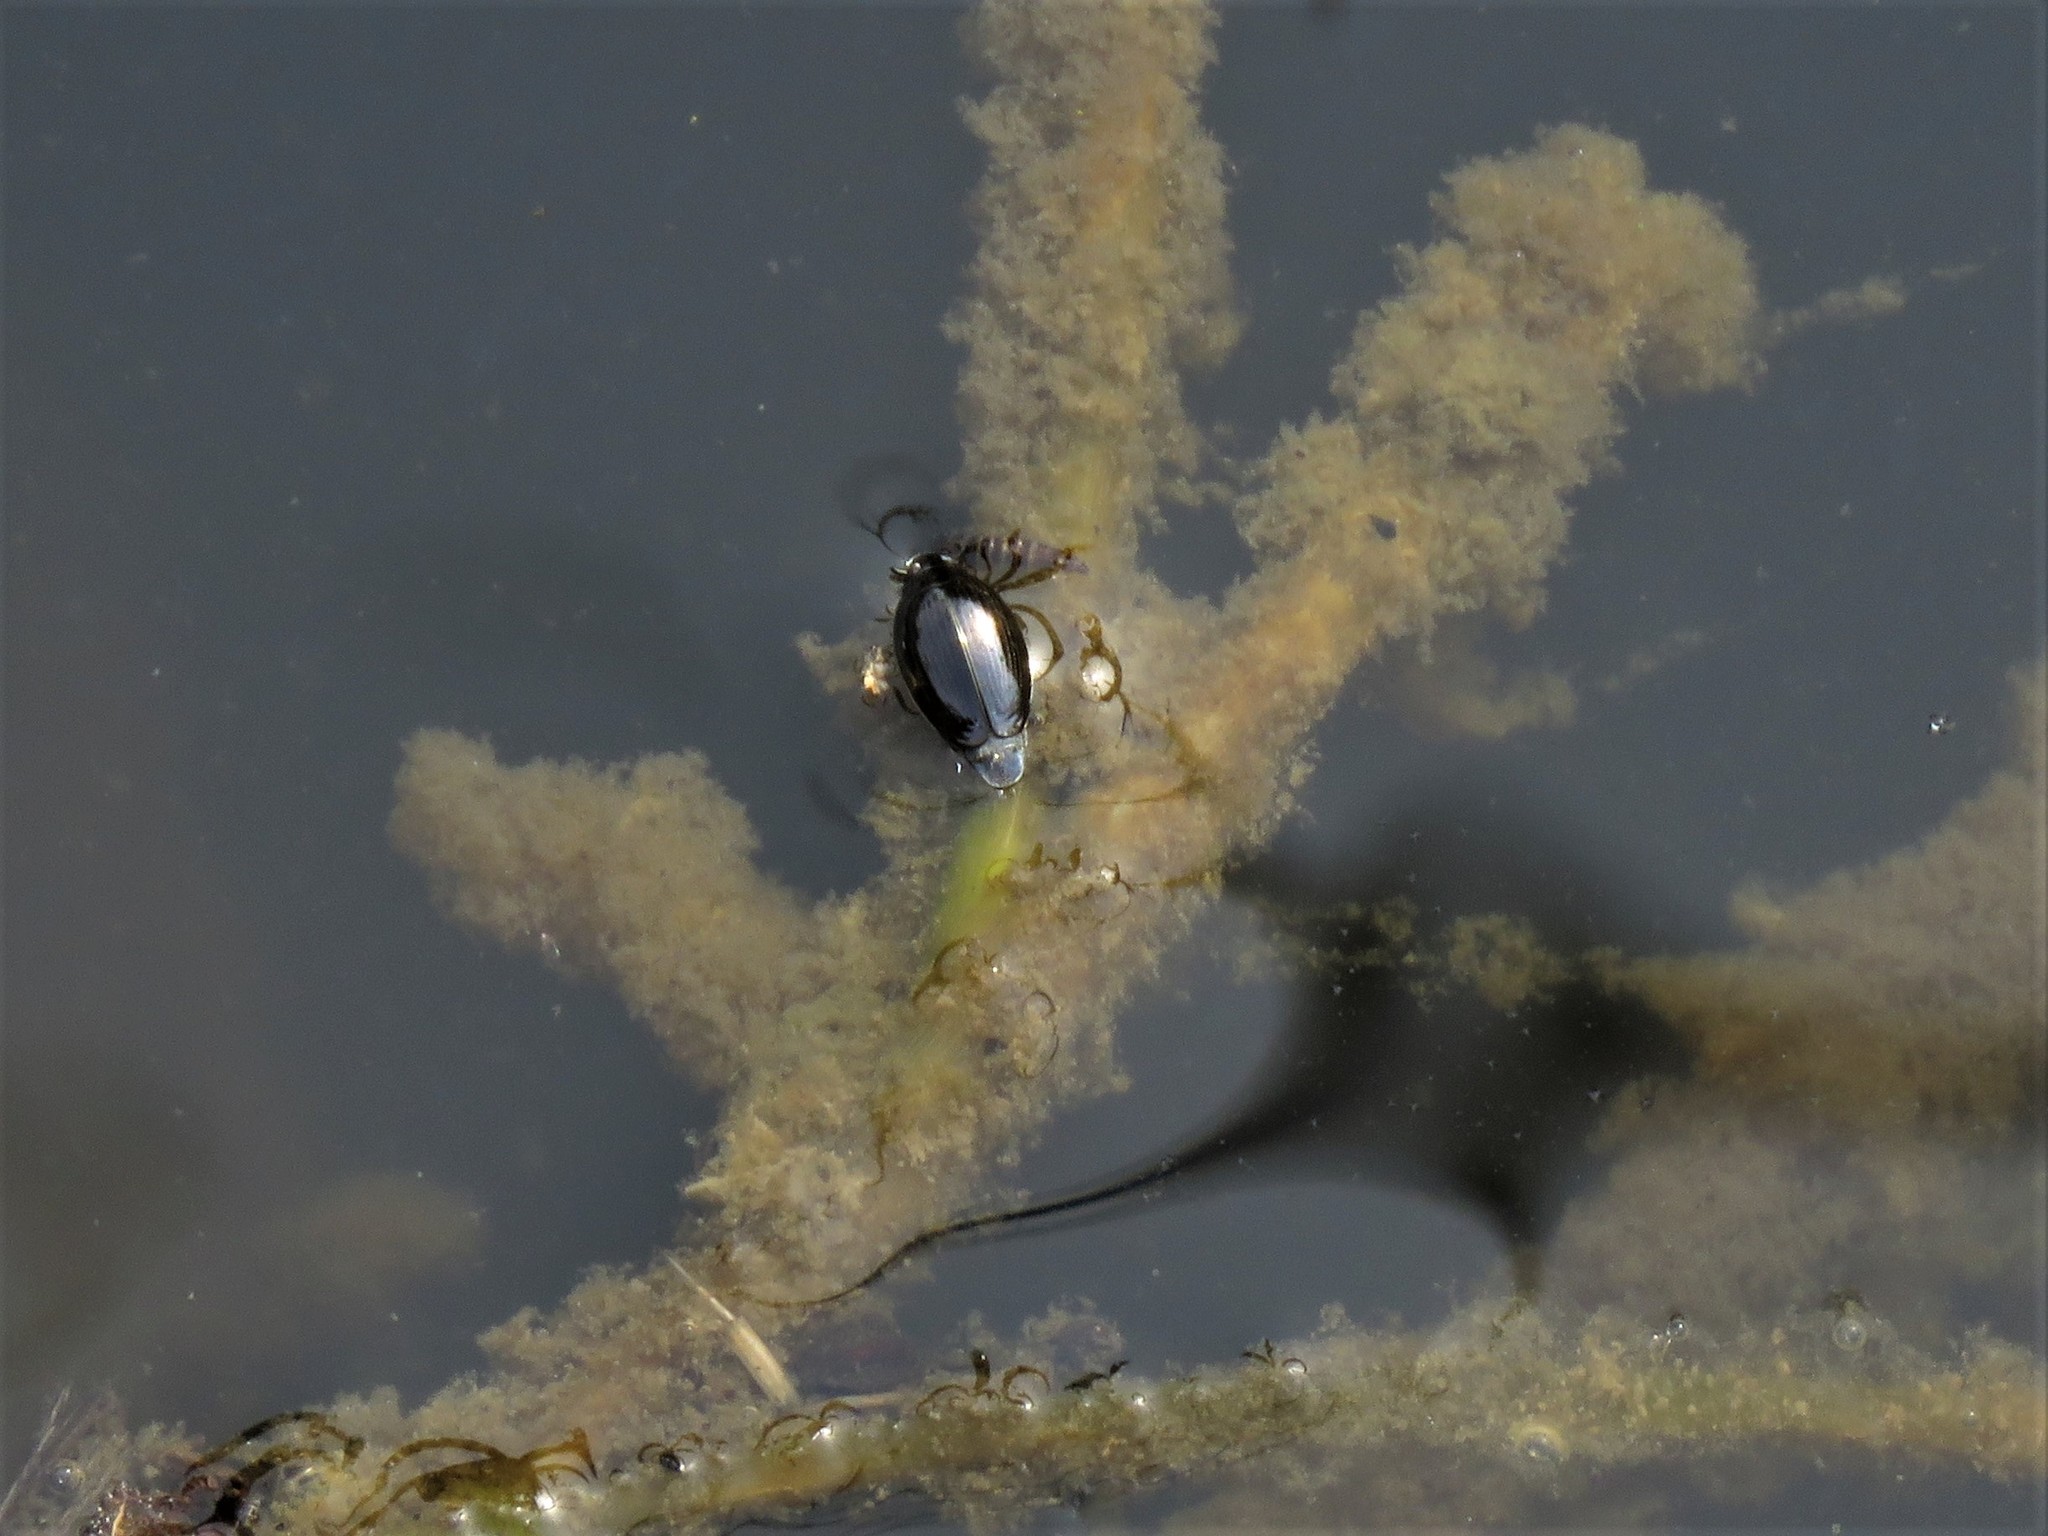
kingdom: Animalia
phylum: Arthropoda
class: Insecta
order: Coleoptera
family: Gyrinidae
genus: Gyrinus
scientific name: Gyrinus
